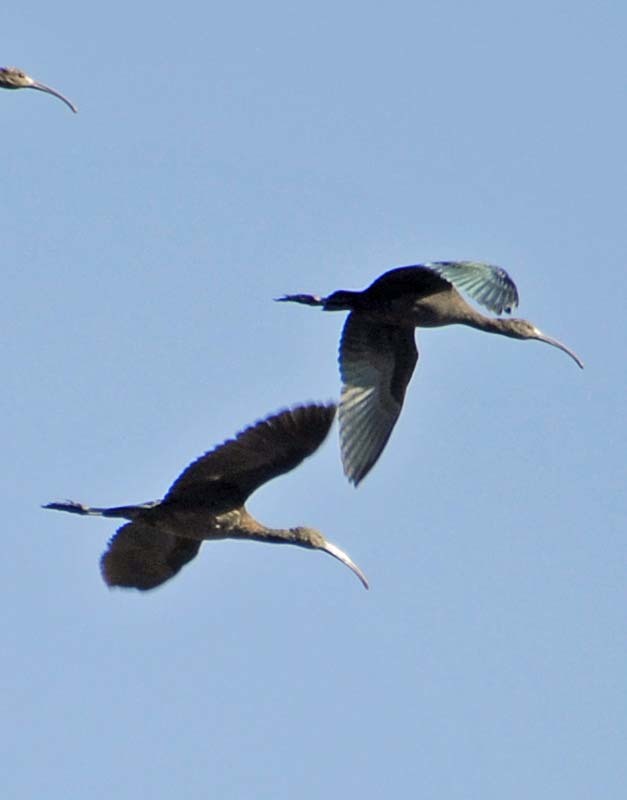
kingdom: Animalia
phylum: Chordata
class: Aves
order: Pelecaniformes
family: Threskiornithidae
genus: Plegadis
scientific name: Plegadis chihi
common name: White-faced ibis
